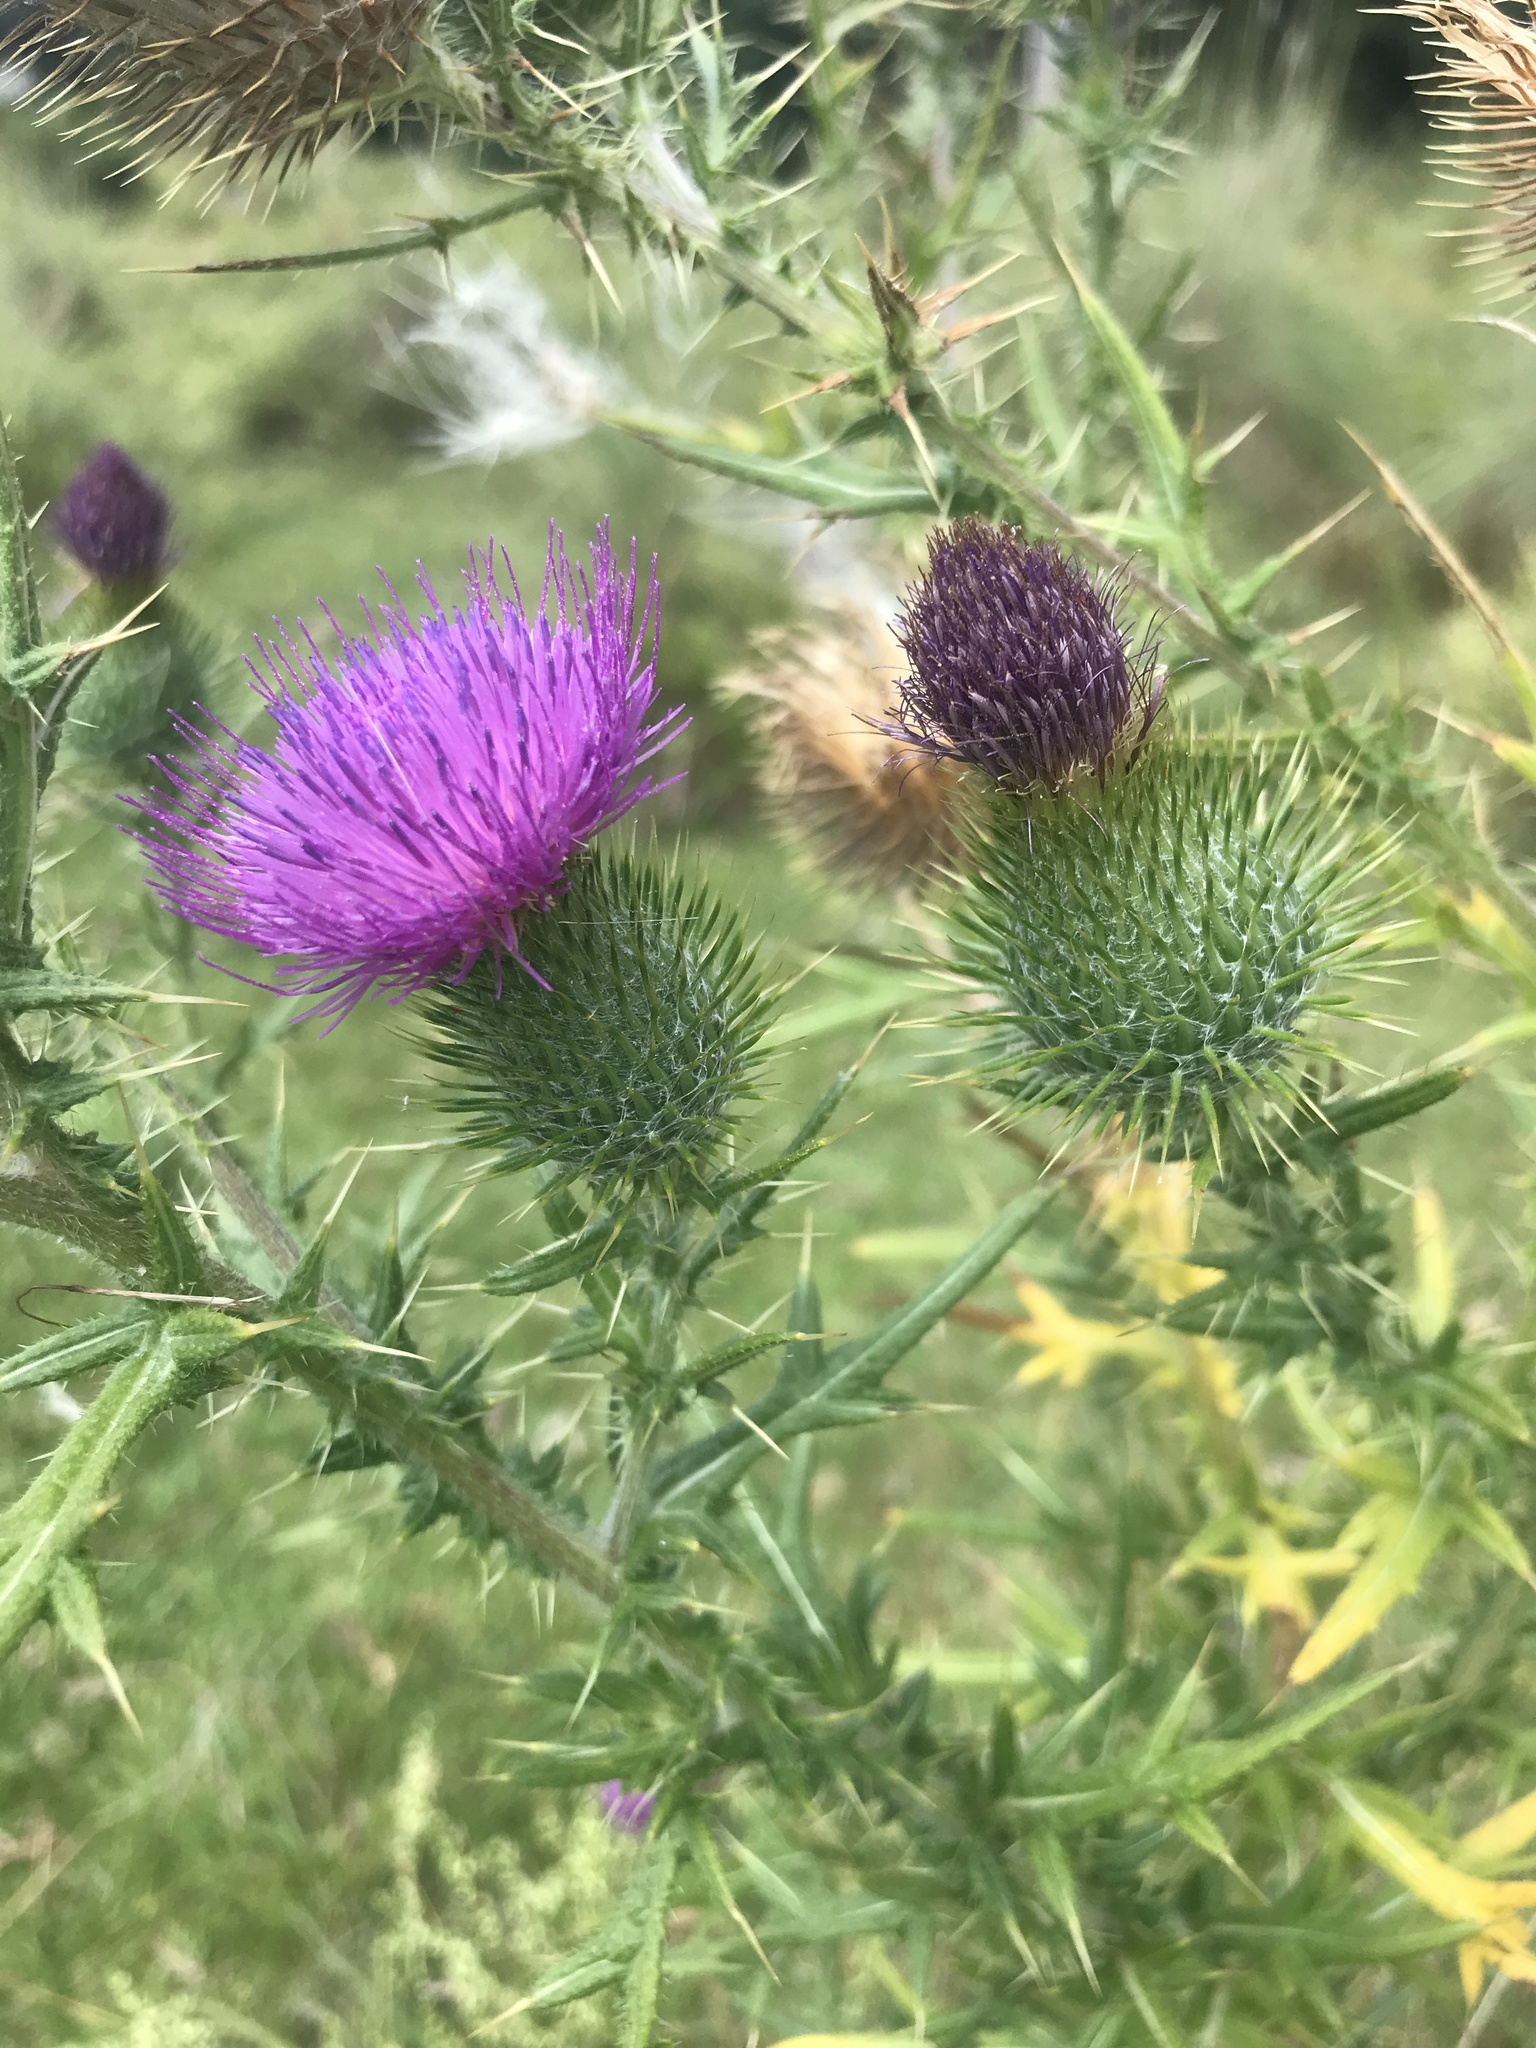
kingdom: Plantae
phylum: Tracheophyta
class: Magnoliopsida
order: Asterales
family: Asteraceae
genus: Cirsium
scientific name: Cirsium vulgare
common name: Bull thistle
